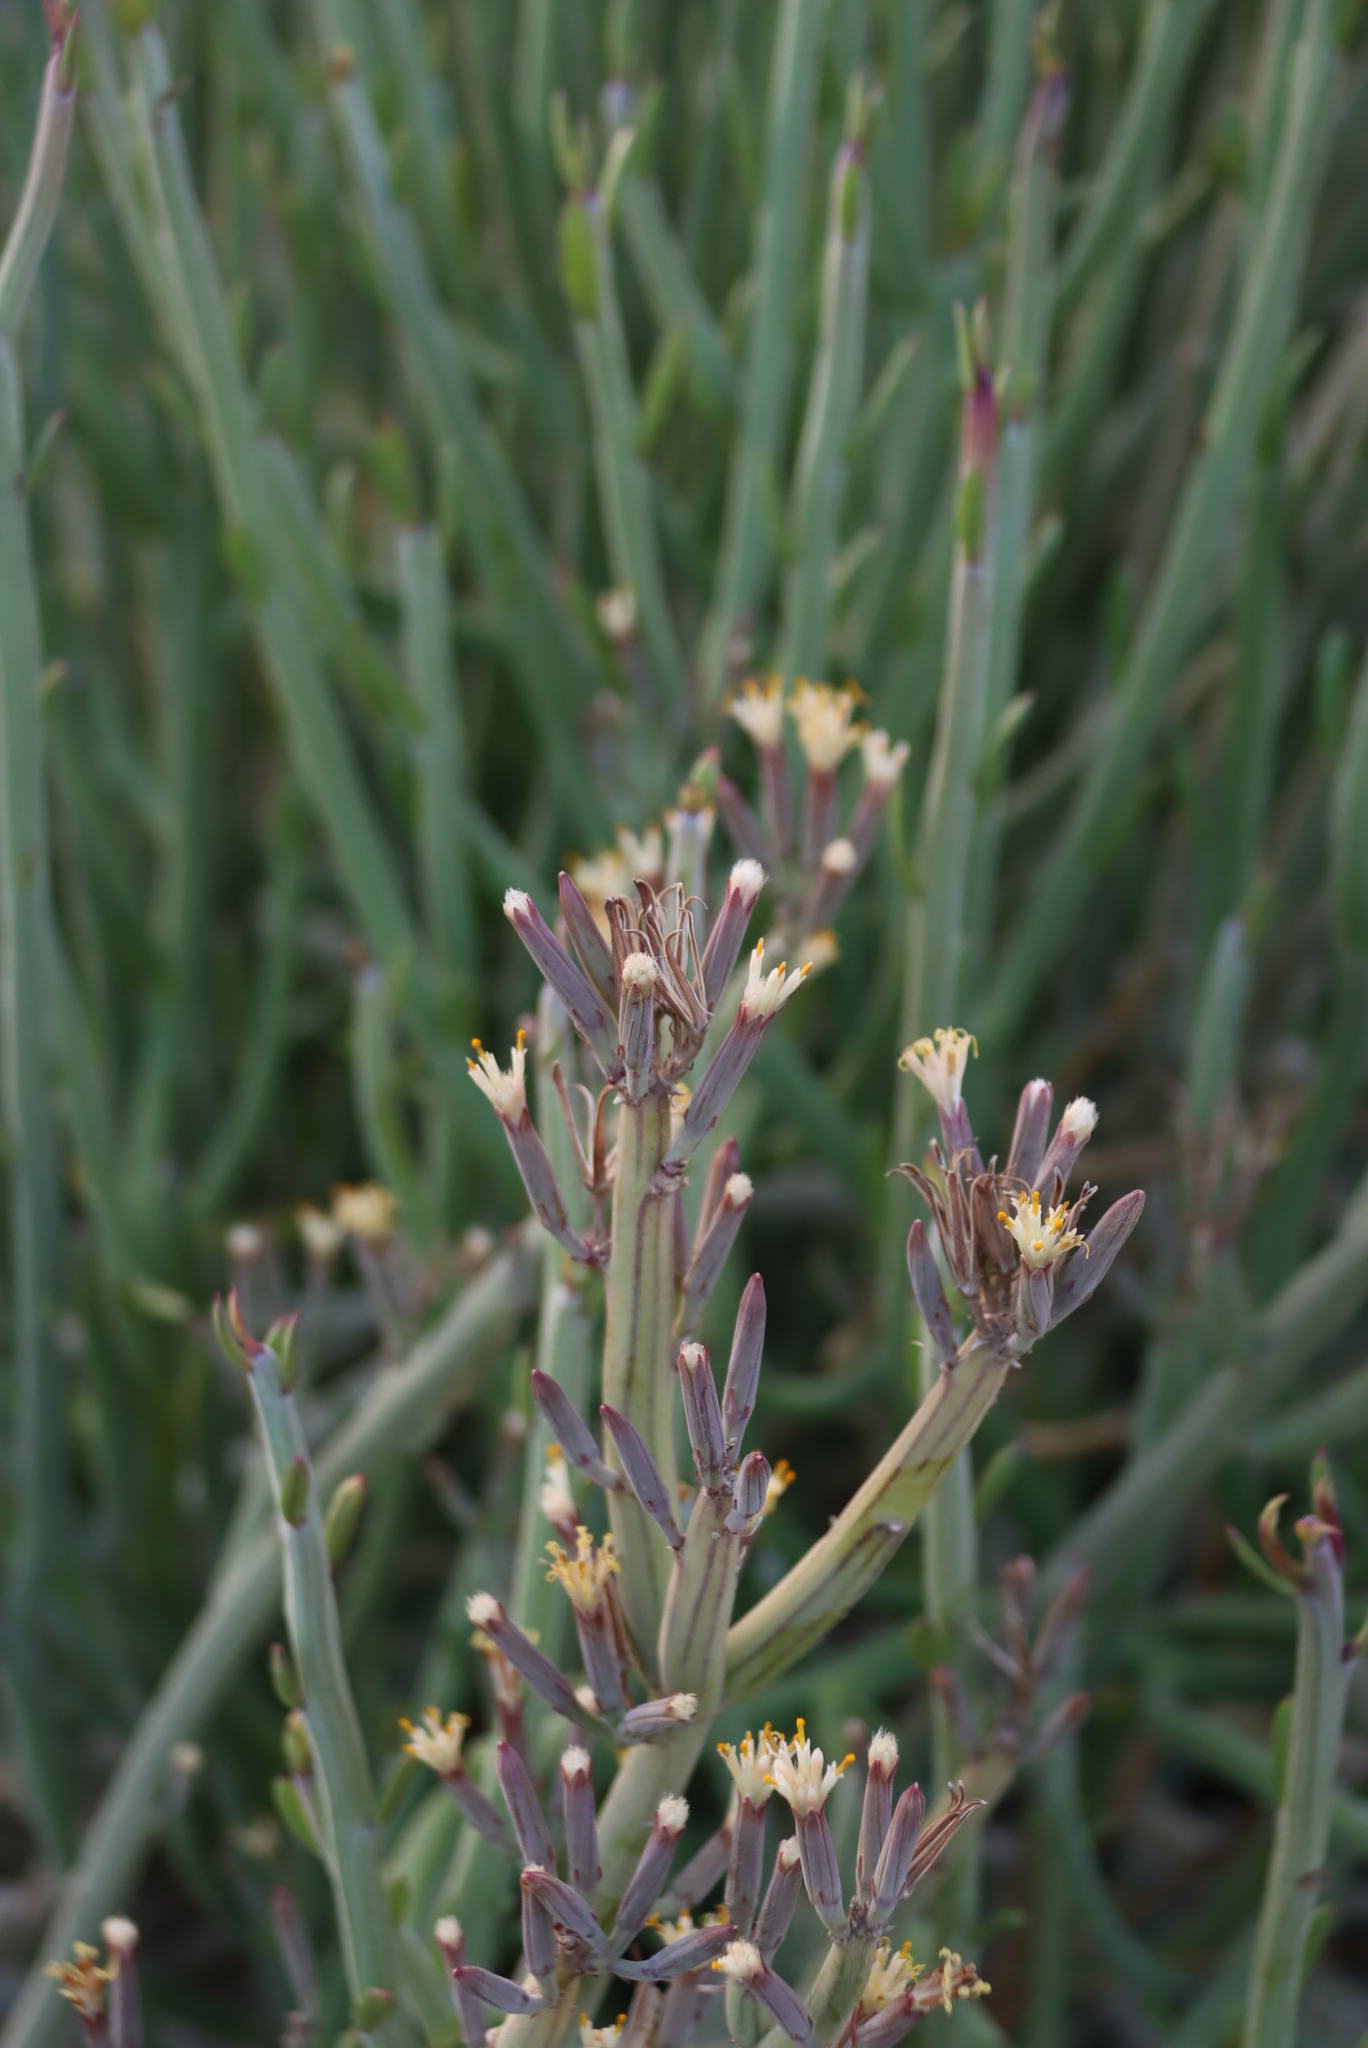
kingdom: Plantae
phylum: Tracheophyta
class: Magnoliopsida
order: Asterales
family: Asteraceae
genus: Curio
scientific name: Curio avasimontanus
